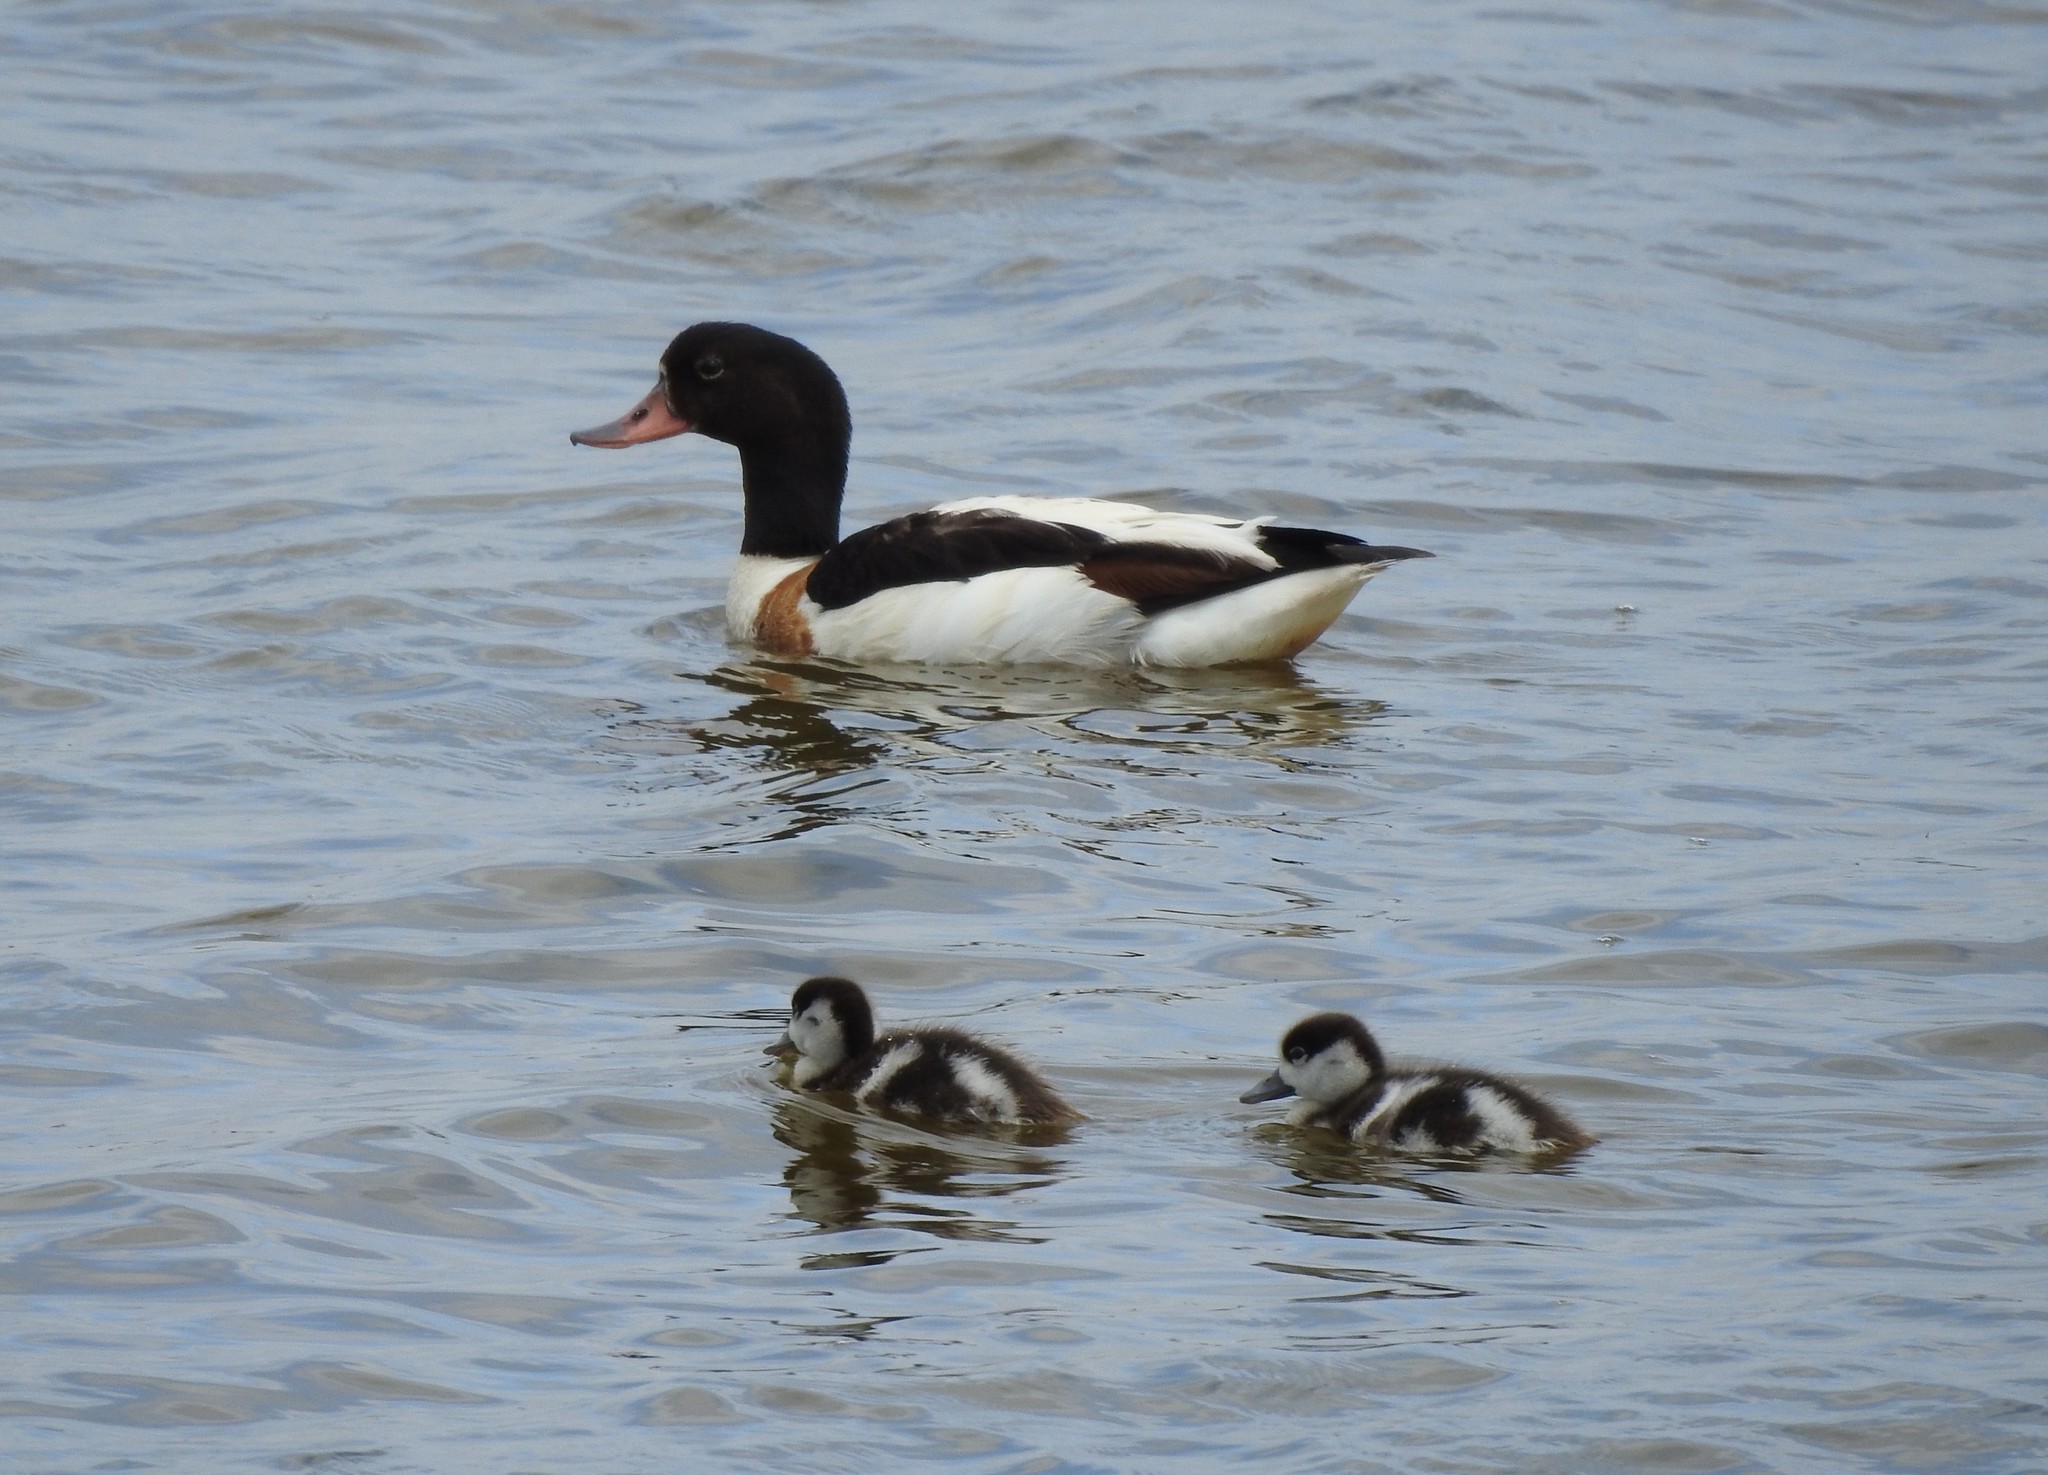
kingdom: Animalia
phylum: Chordata
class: Aves
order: Anseriformes
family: Anatidae
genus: Tadorna
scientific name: Tadorna tadorna
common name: Common shelduck
